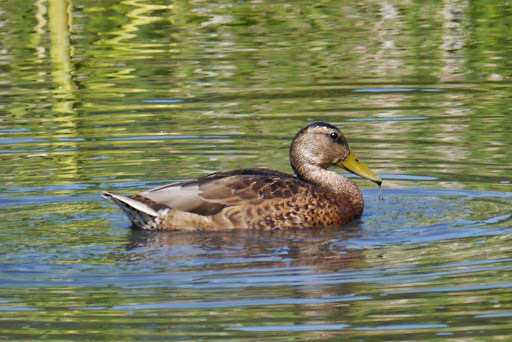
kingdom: Animalia
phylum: Chordata
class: Aves
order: Anseriformes
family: Anatidae
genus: Anas
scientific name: Anas platyrhynchos
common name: Mallard
